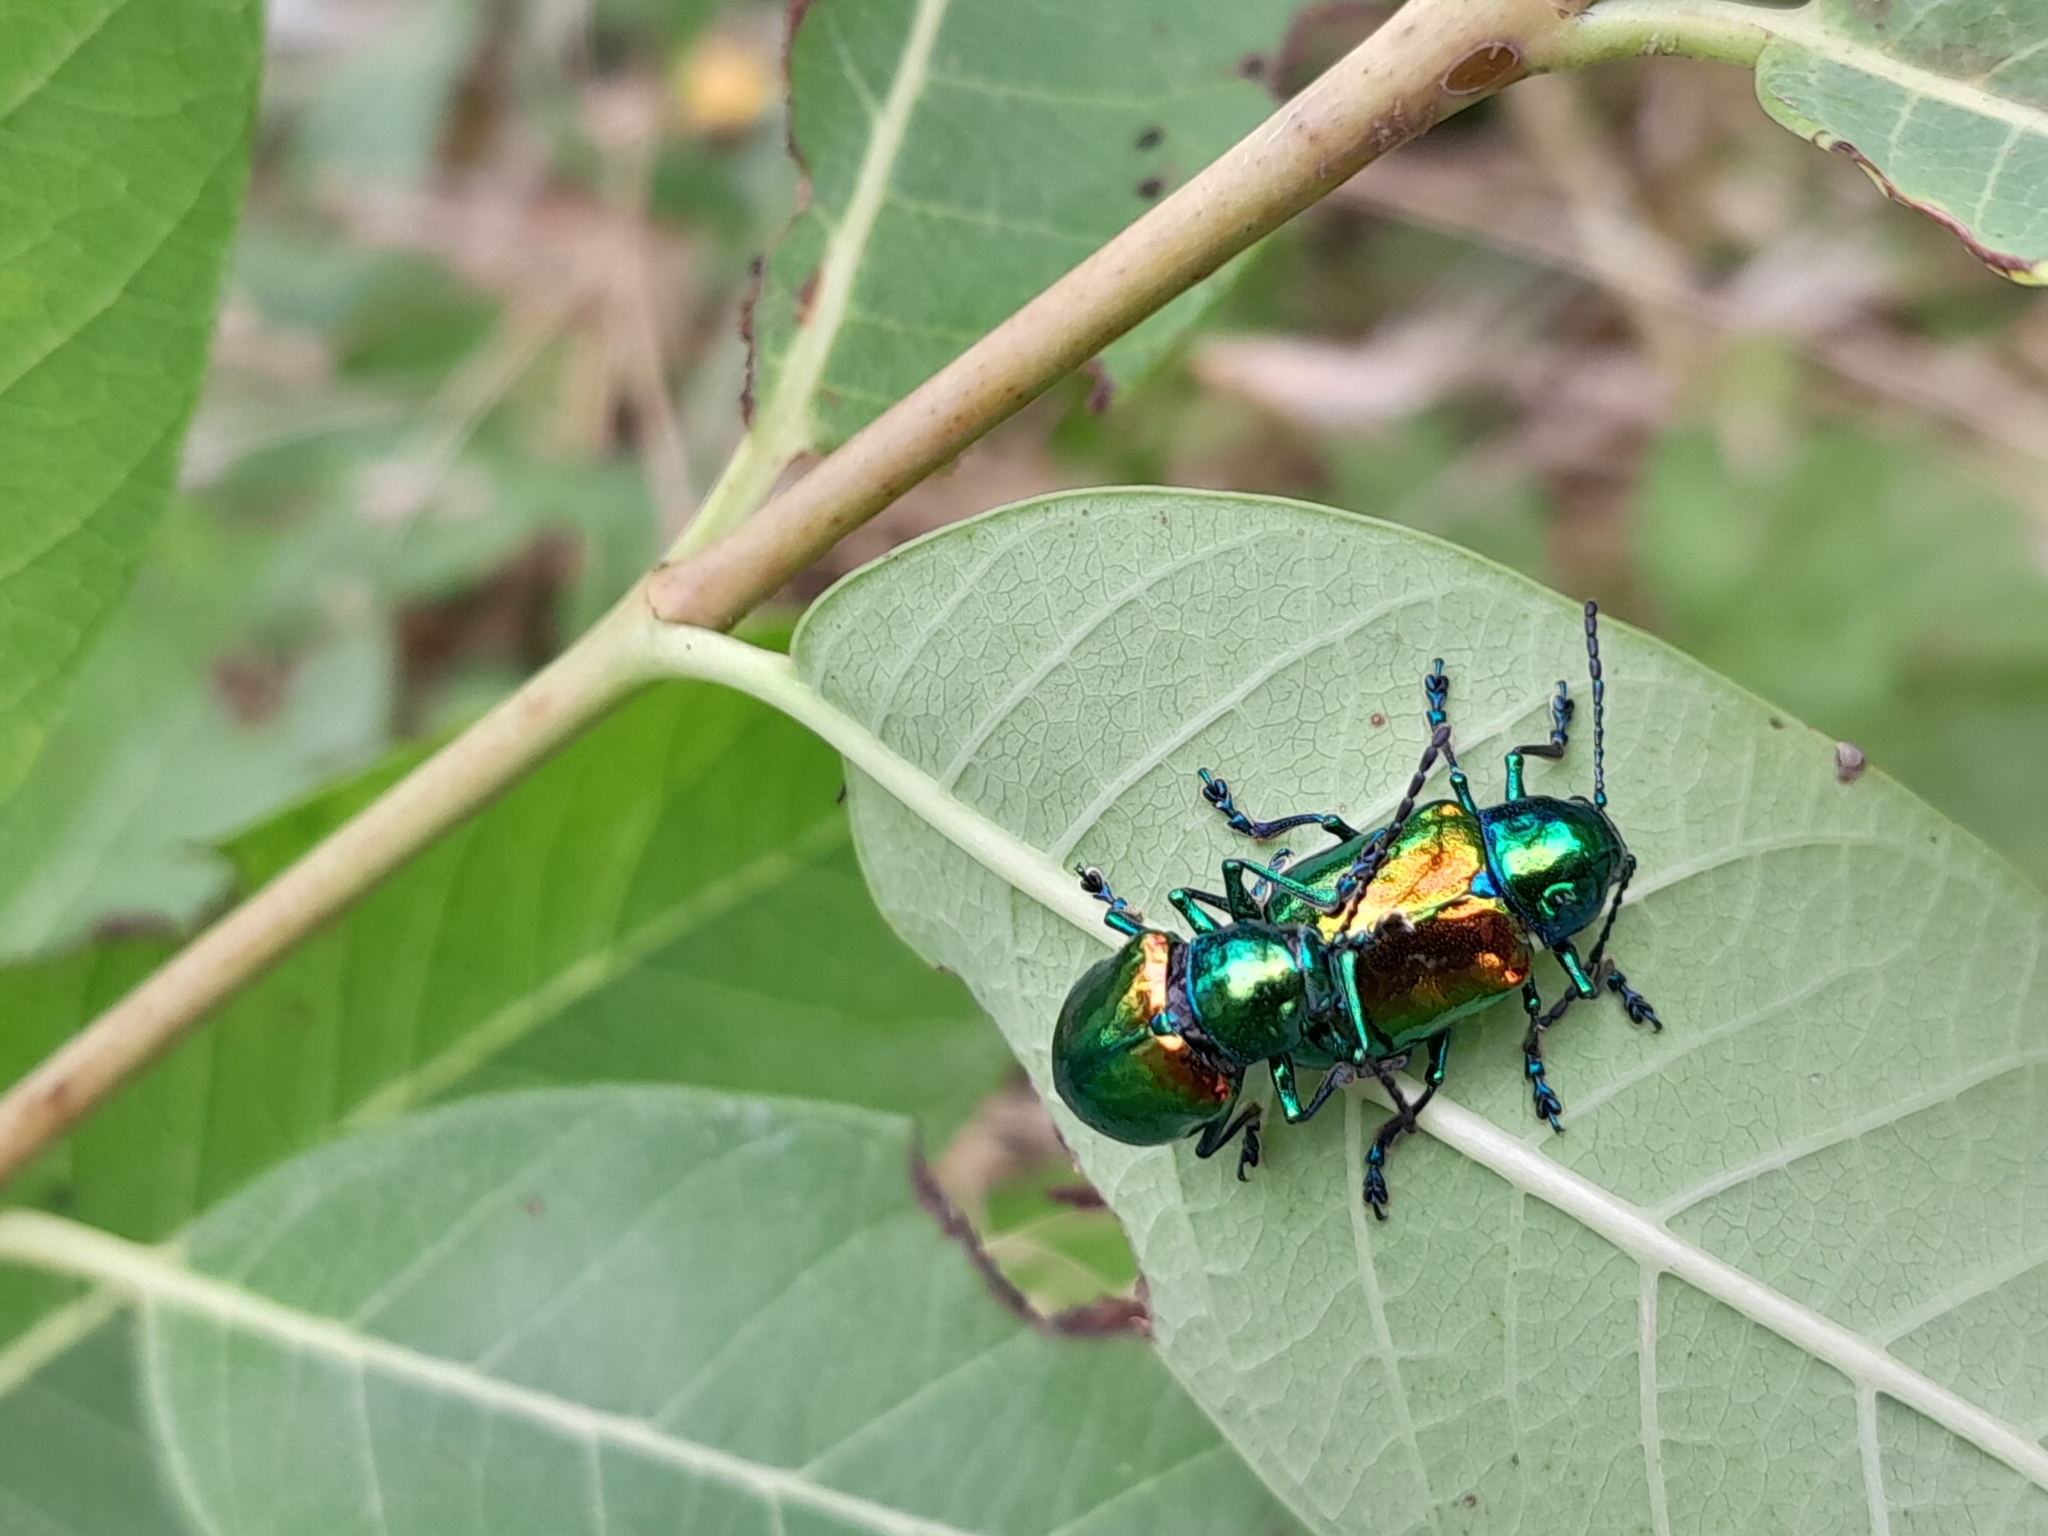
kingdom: Animalia
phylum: Arthropoda
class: Insecta
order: Coleoptera
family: Chrysomelidae
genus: Chrysochus
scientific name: Chrysochus auratus
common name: Dogbane leaf beetle
